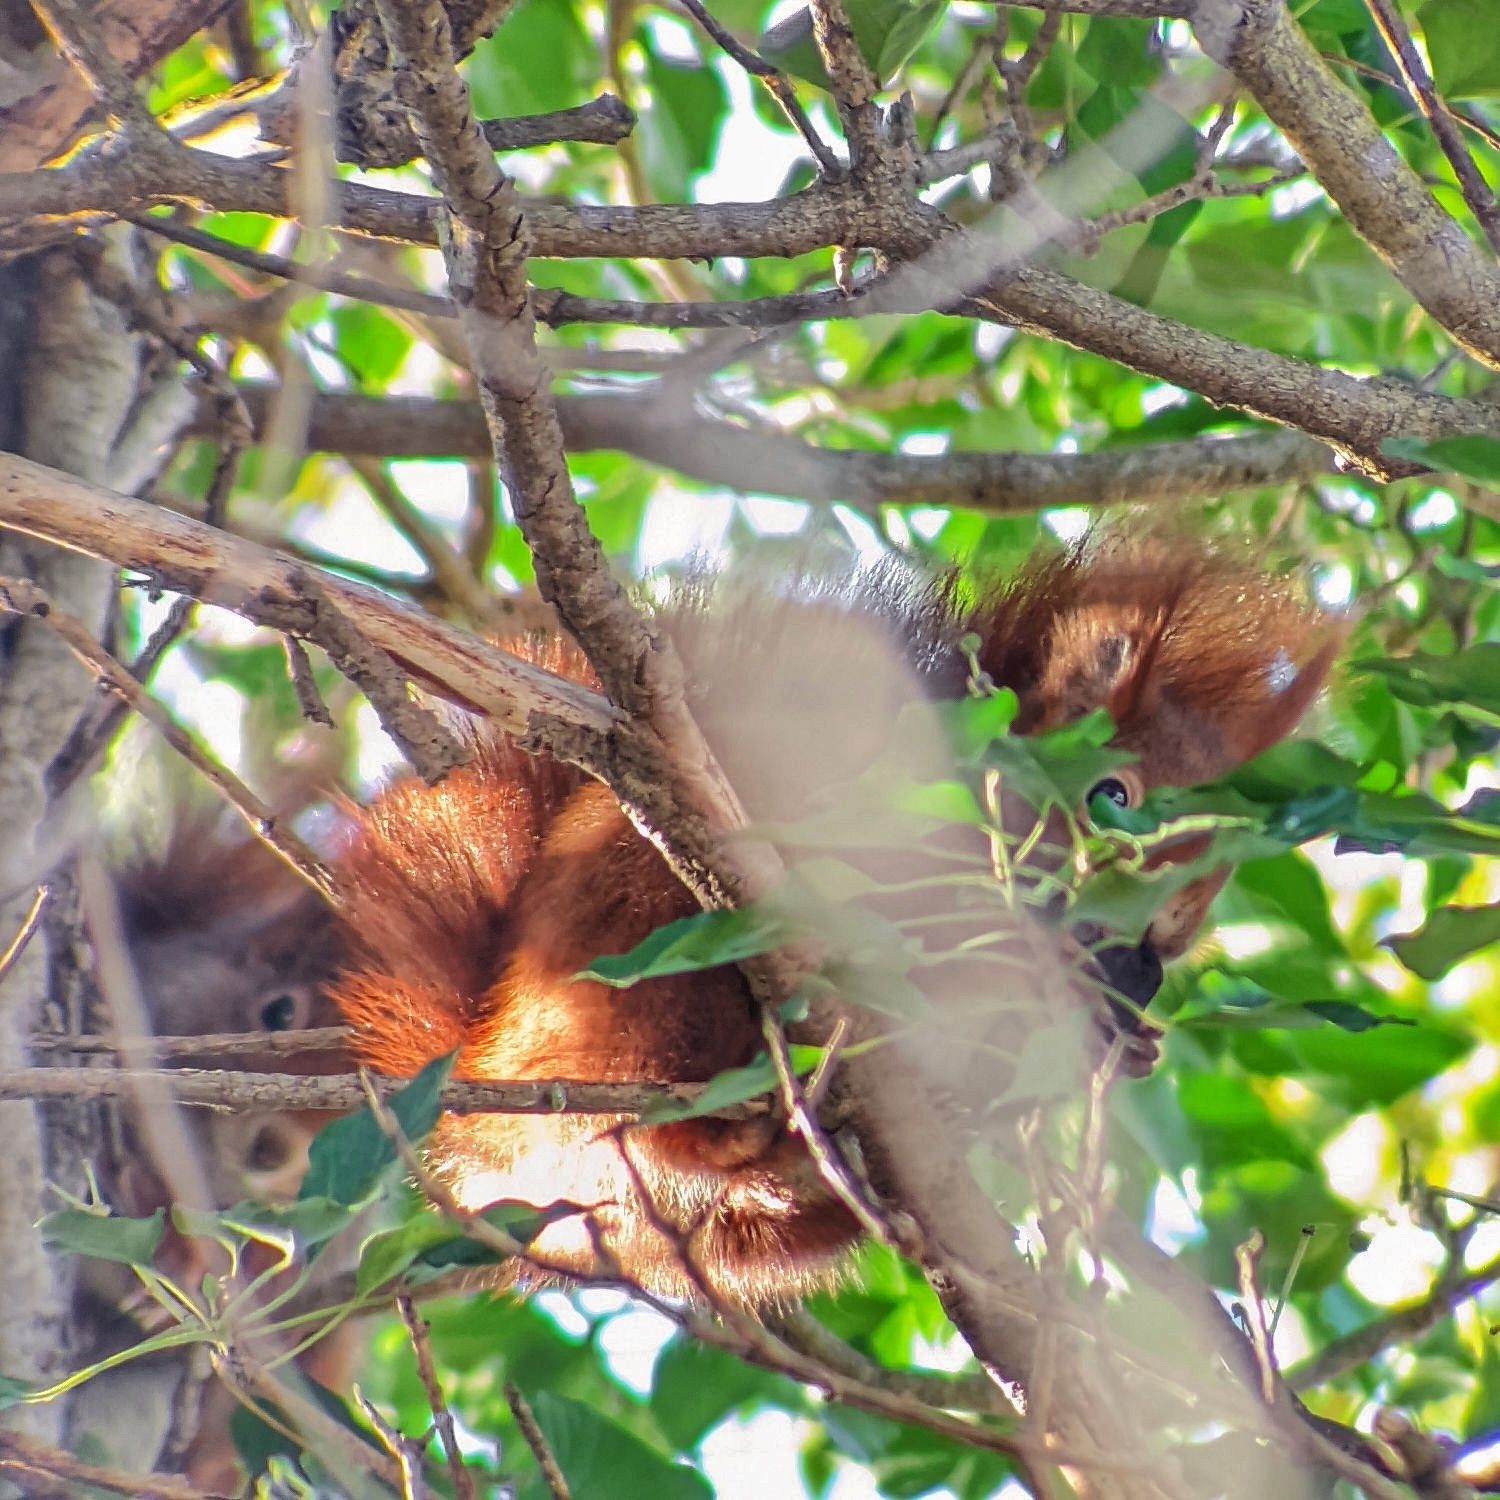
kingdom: Animalia
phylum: Chordata
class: Mammalia
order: Rodentia
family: Sciuridae
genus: Sciurus
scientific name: Sciurus vulgaris
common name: Eurasian red squirrel
